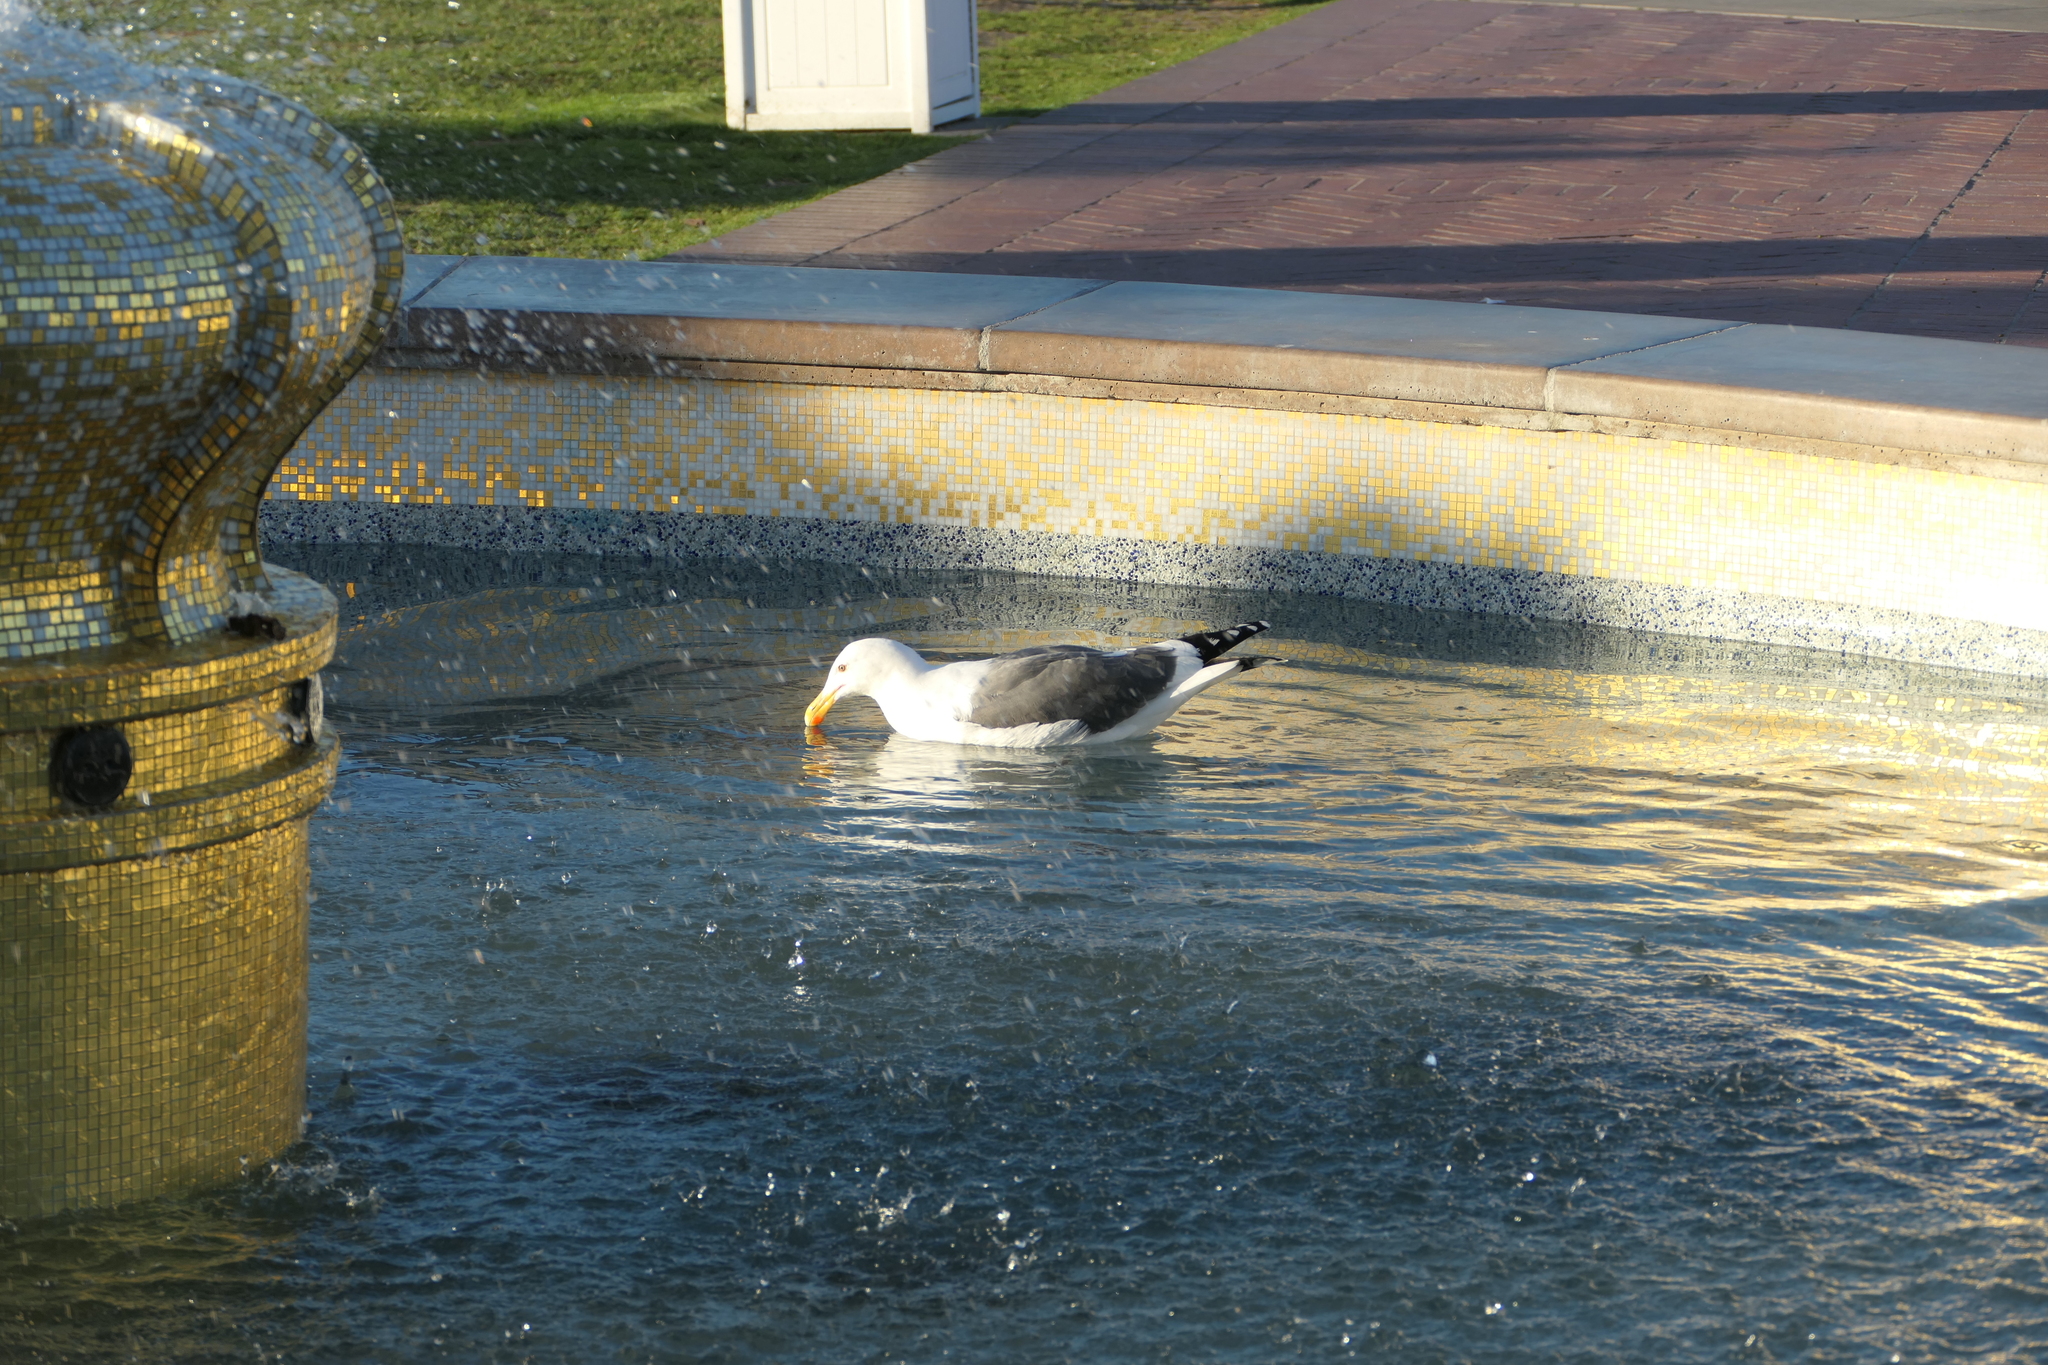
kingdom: Animalia
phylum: Chordata
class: Aves
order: Charadriiformes
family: Laridae
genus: Larus
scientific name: Larus occidentalis
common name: Western gull
